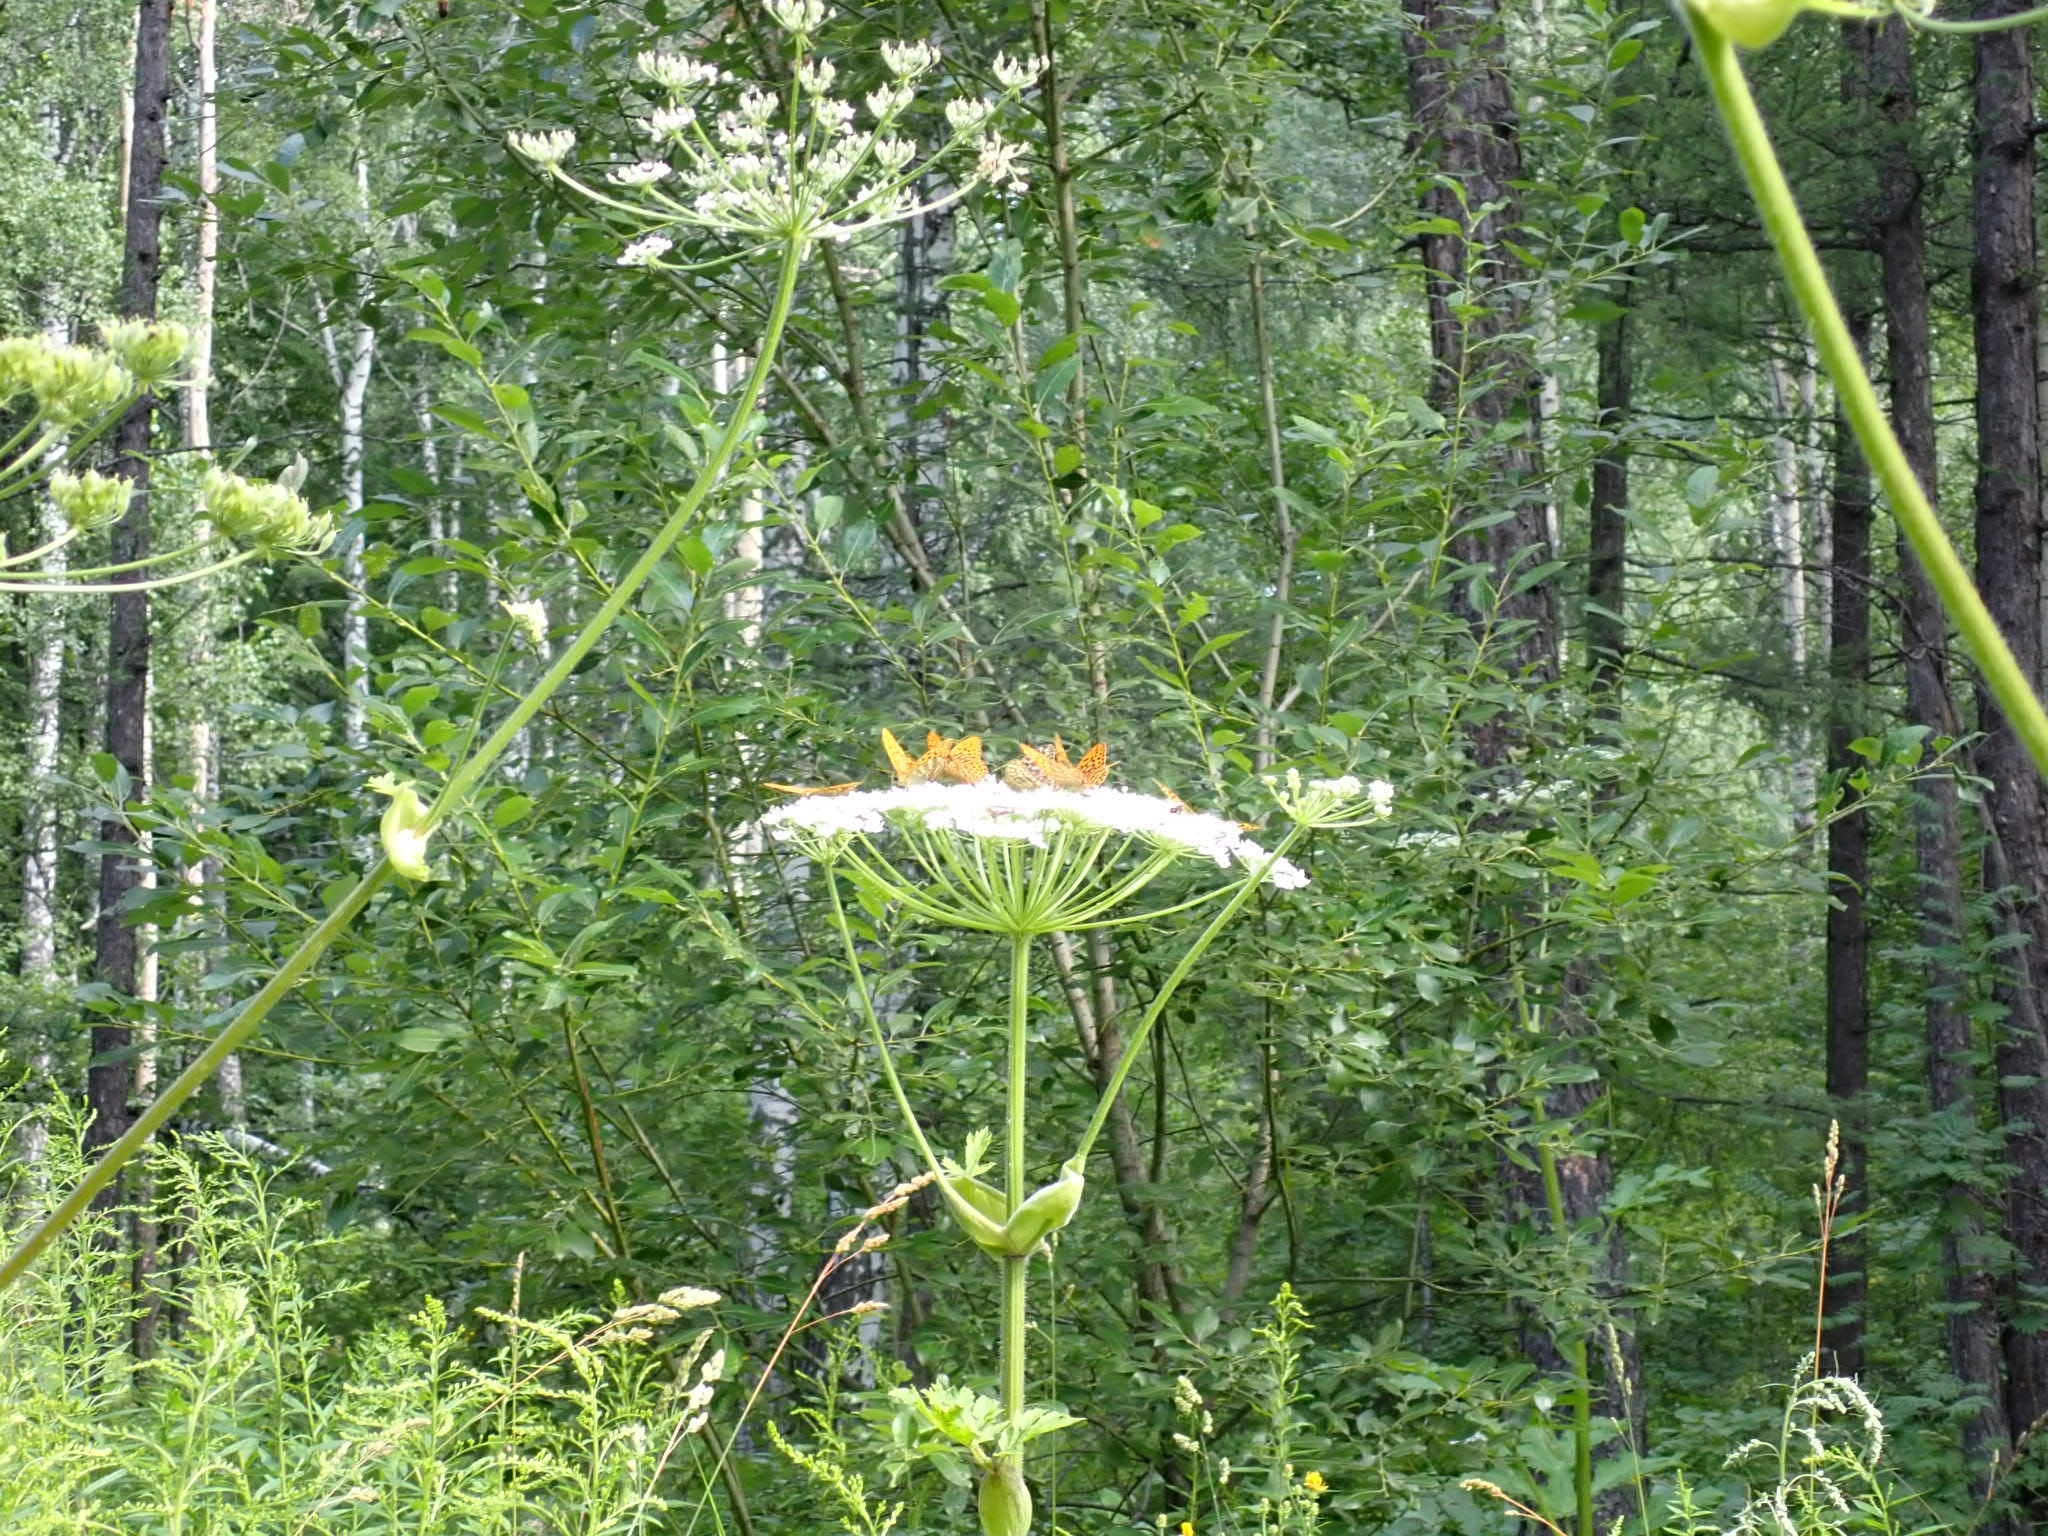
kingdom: Animalia
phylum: Arthropoda
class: Insecta
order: Lepidoptera
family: Nymphalidae
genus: Argynnis
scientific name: Argynnis paphia
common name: Silver-washed fritillary
